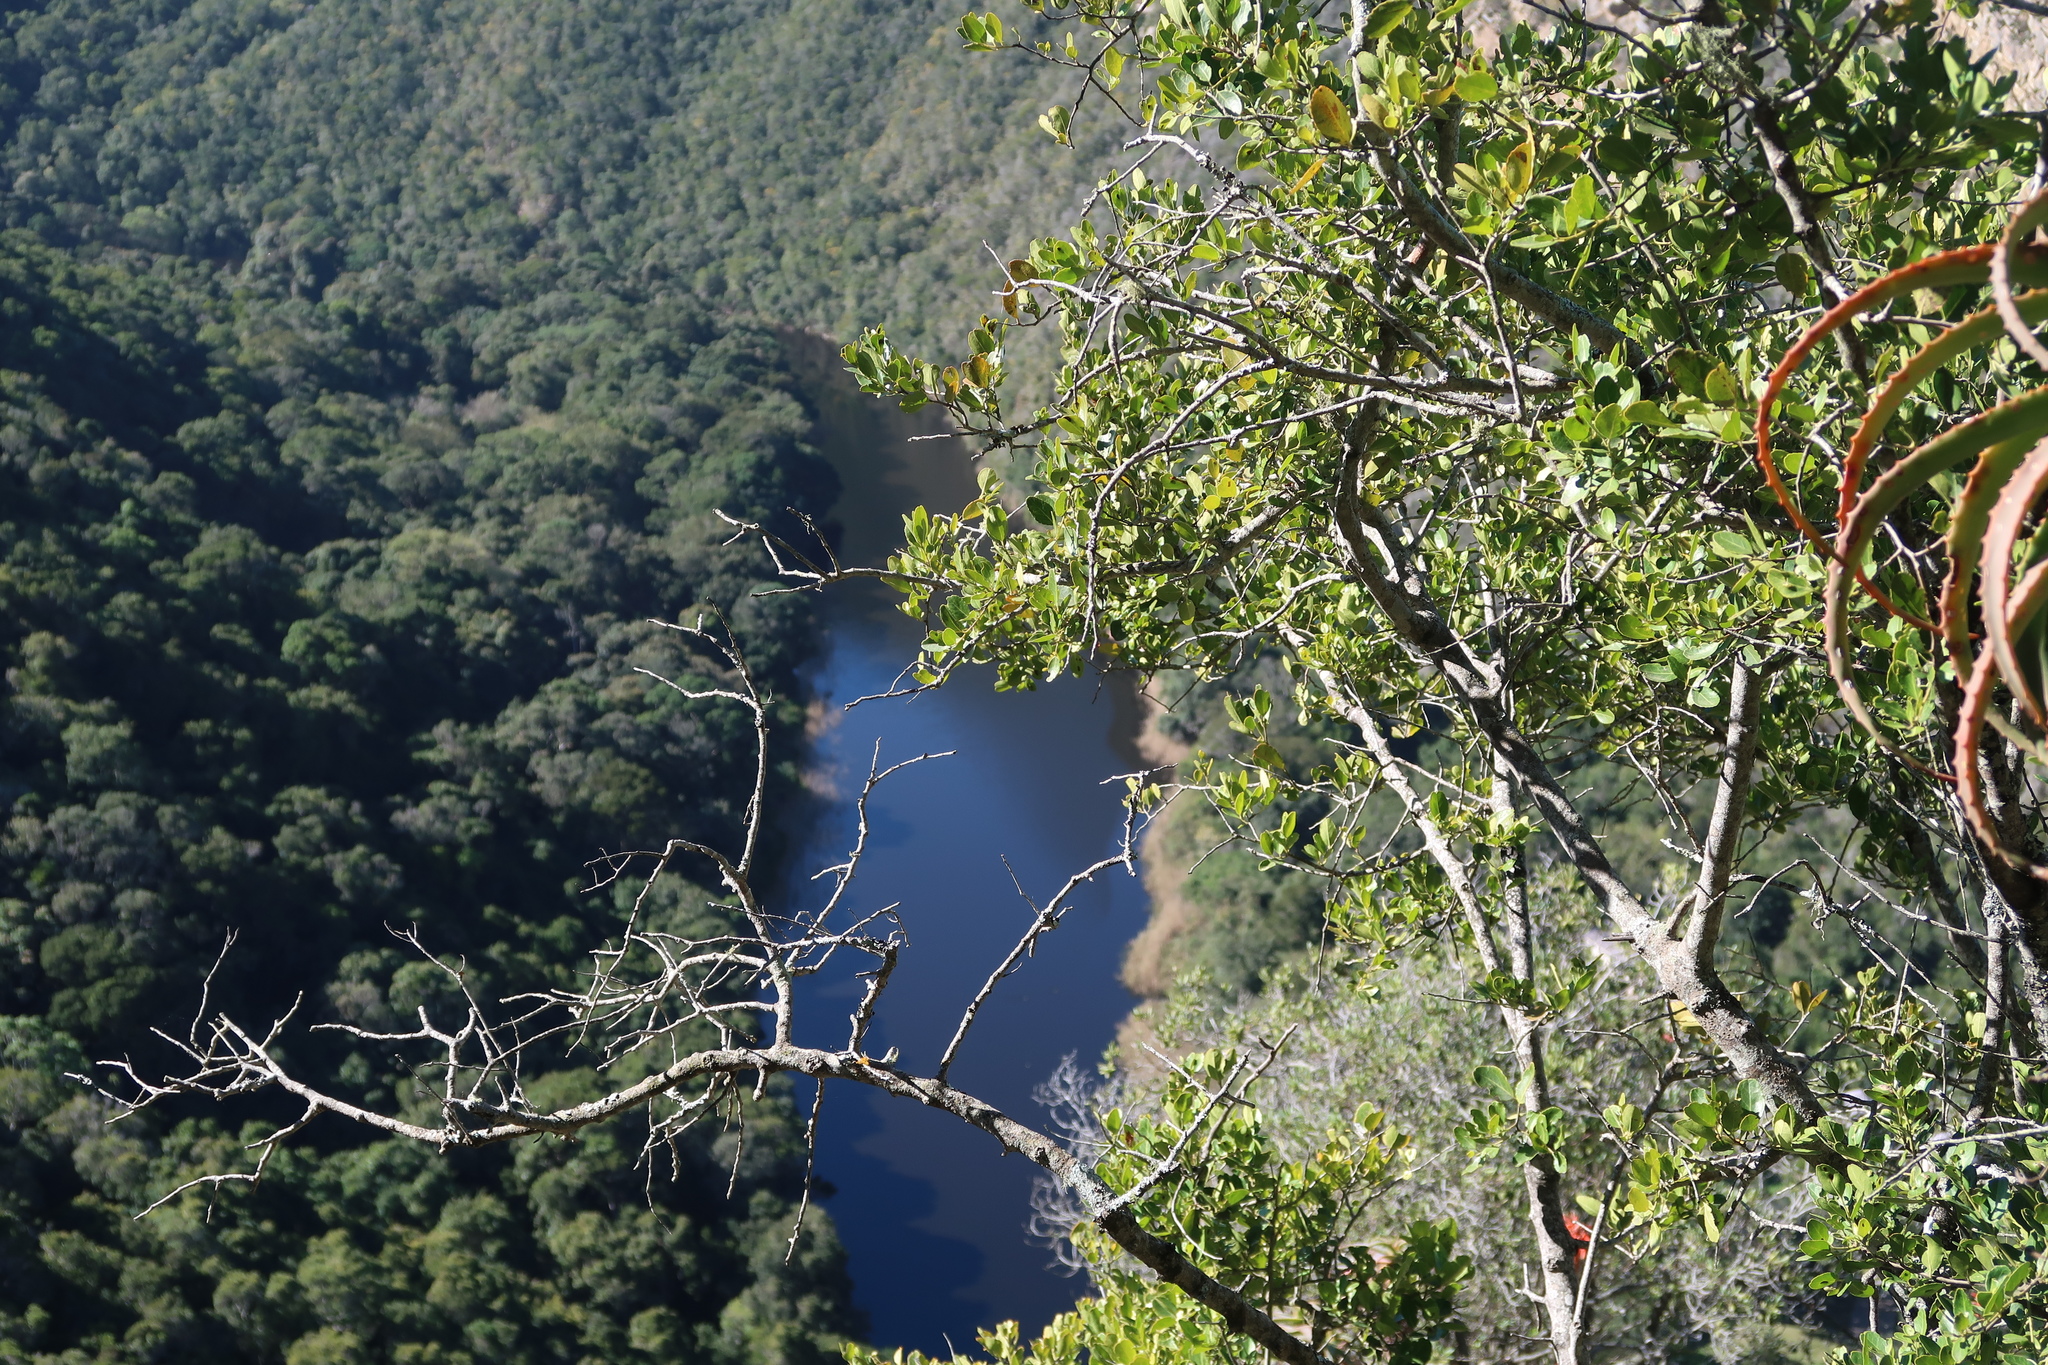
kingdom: Plantae
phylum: Tracheophyta
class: Liliopsida
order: Asparagales
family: Asphodelaceae
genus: Aloe
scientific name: Aloe arborescens
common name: Candelabra aloe
